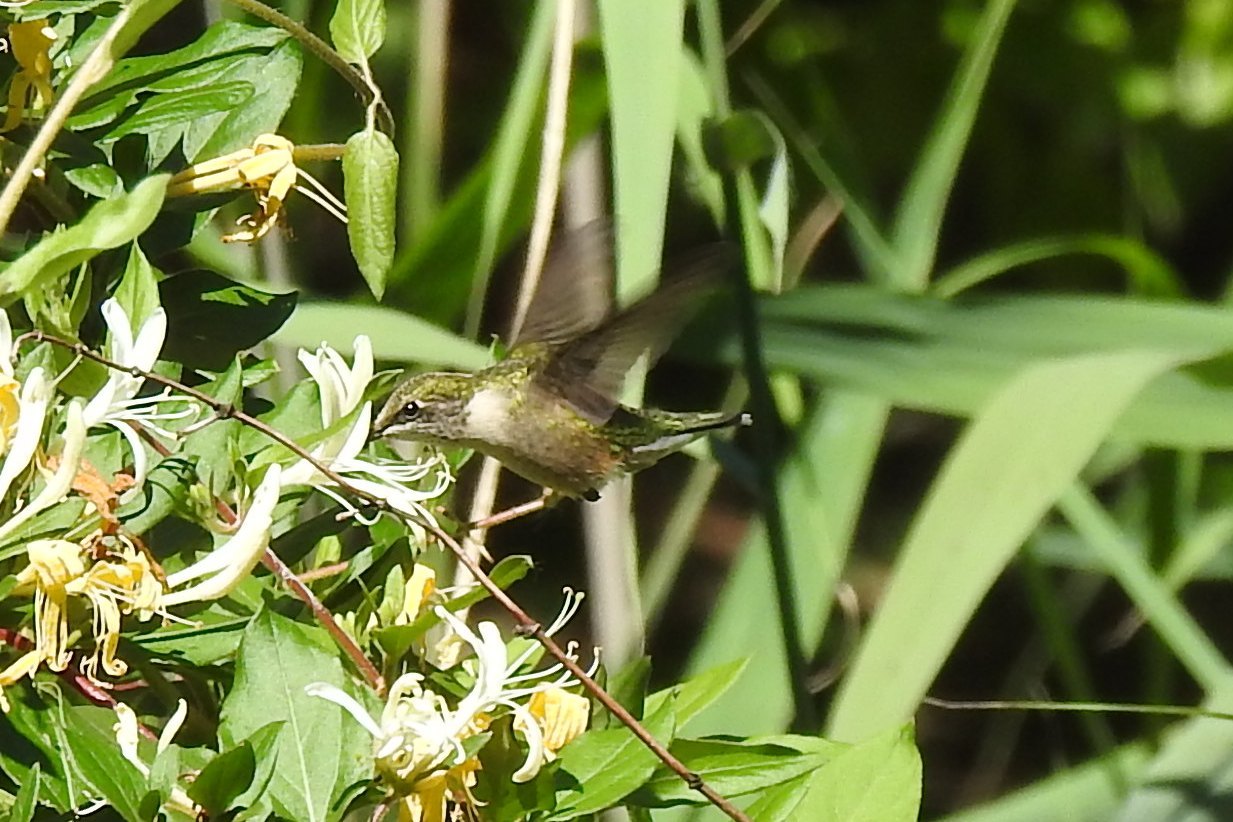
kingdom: Animalia
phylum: Chordata
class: Aves
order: Apodiformes
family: Trochilidae
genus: Archilochus
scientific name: Archilochus colubris
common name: Ruby-throated hummingbird
